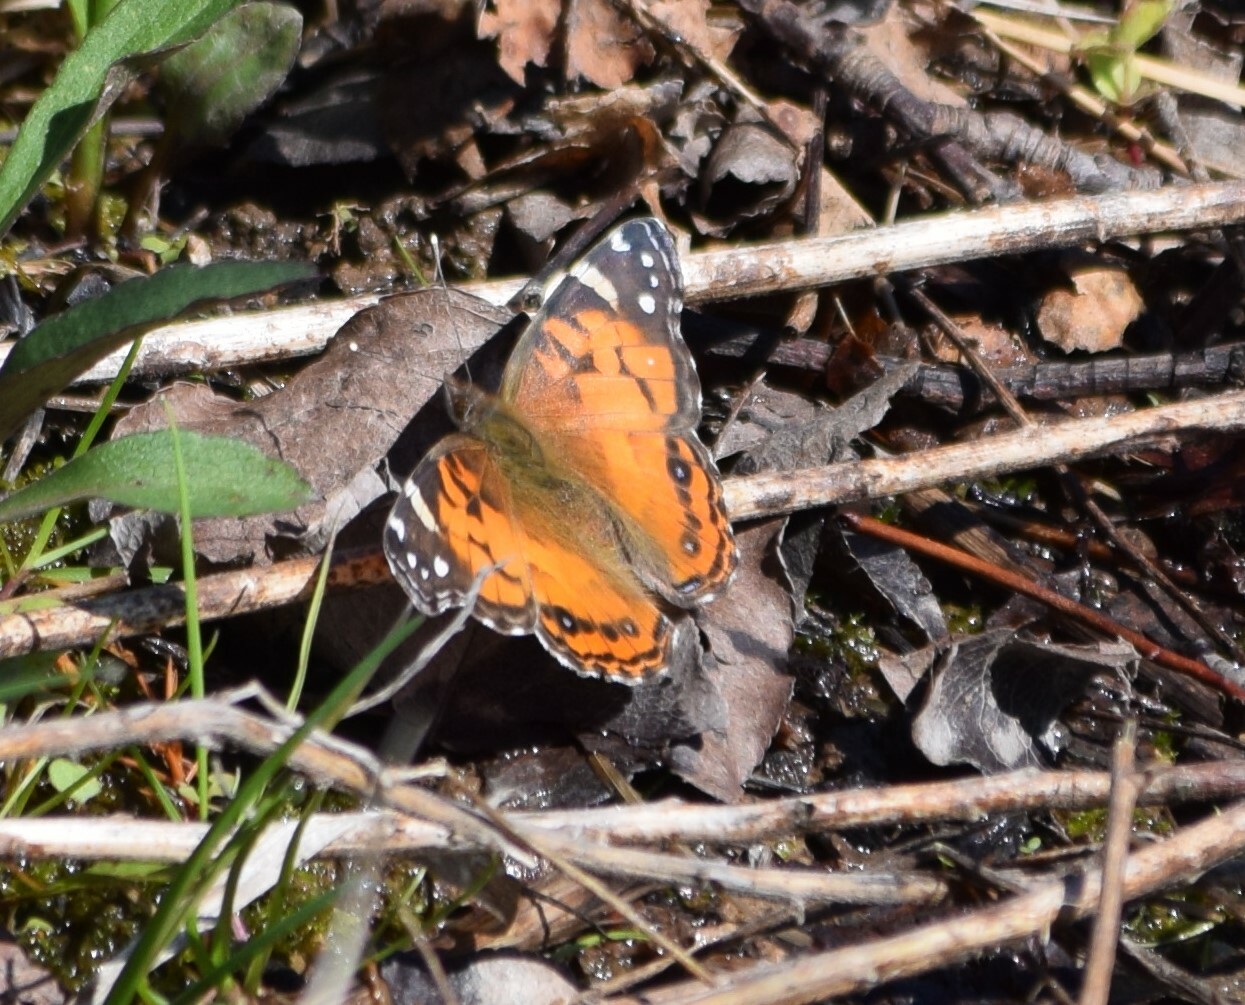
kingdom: Animalia
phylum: Arthropoda
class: Insecta
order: Lepidoptera
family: Nymphalidae
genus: Vanessa
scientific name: Vanessa virginiensis
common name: American lady
